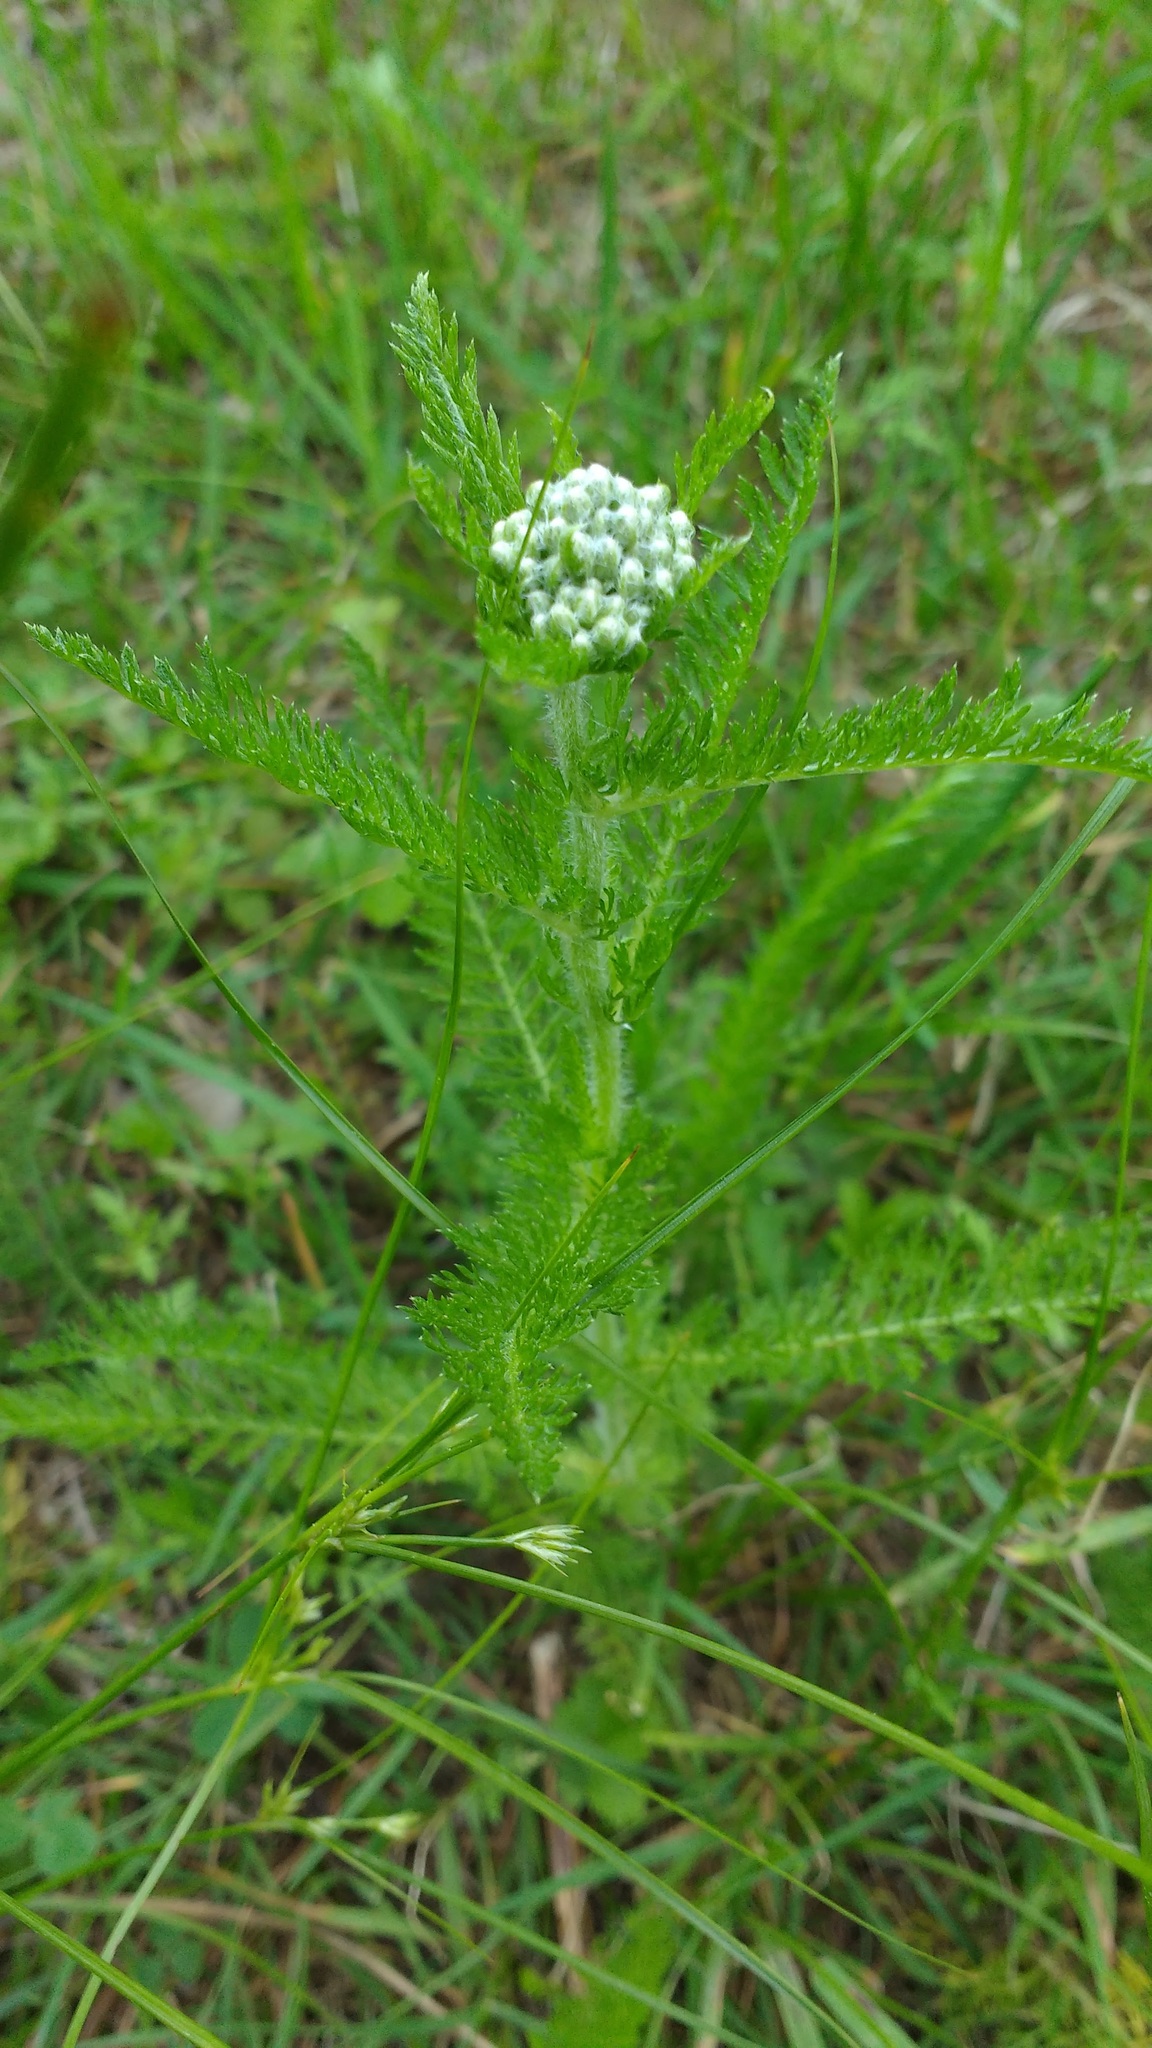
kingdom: Plantae
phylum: Tracheophyta
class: Magnoliopsida
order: Asterales
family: Asteraceae
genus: Achillea
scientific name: Achillea millefolium
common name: Yarrow
